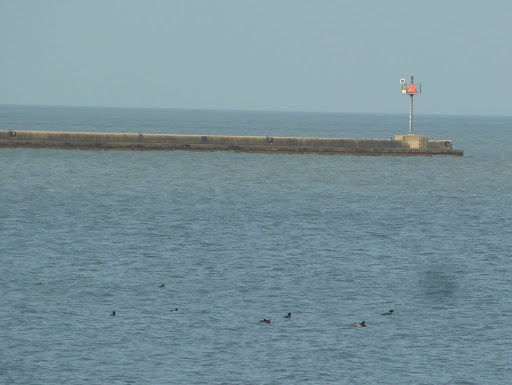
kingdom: Animalia
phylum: Chordata
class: Aves
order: Anseriformes
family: Anatidae
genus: Mergus
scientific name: Mergus merganser
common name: Common merganser
